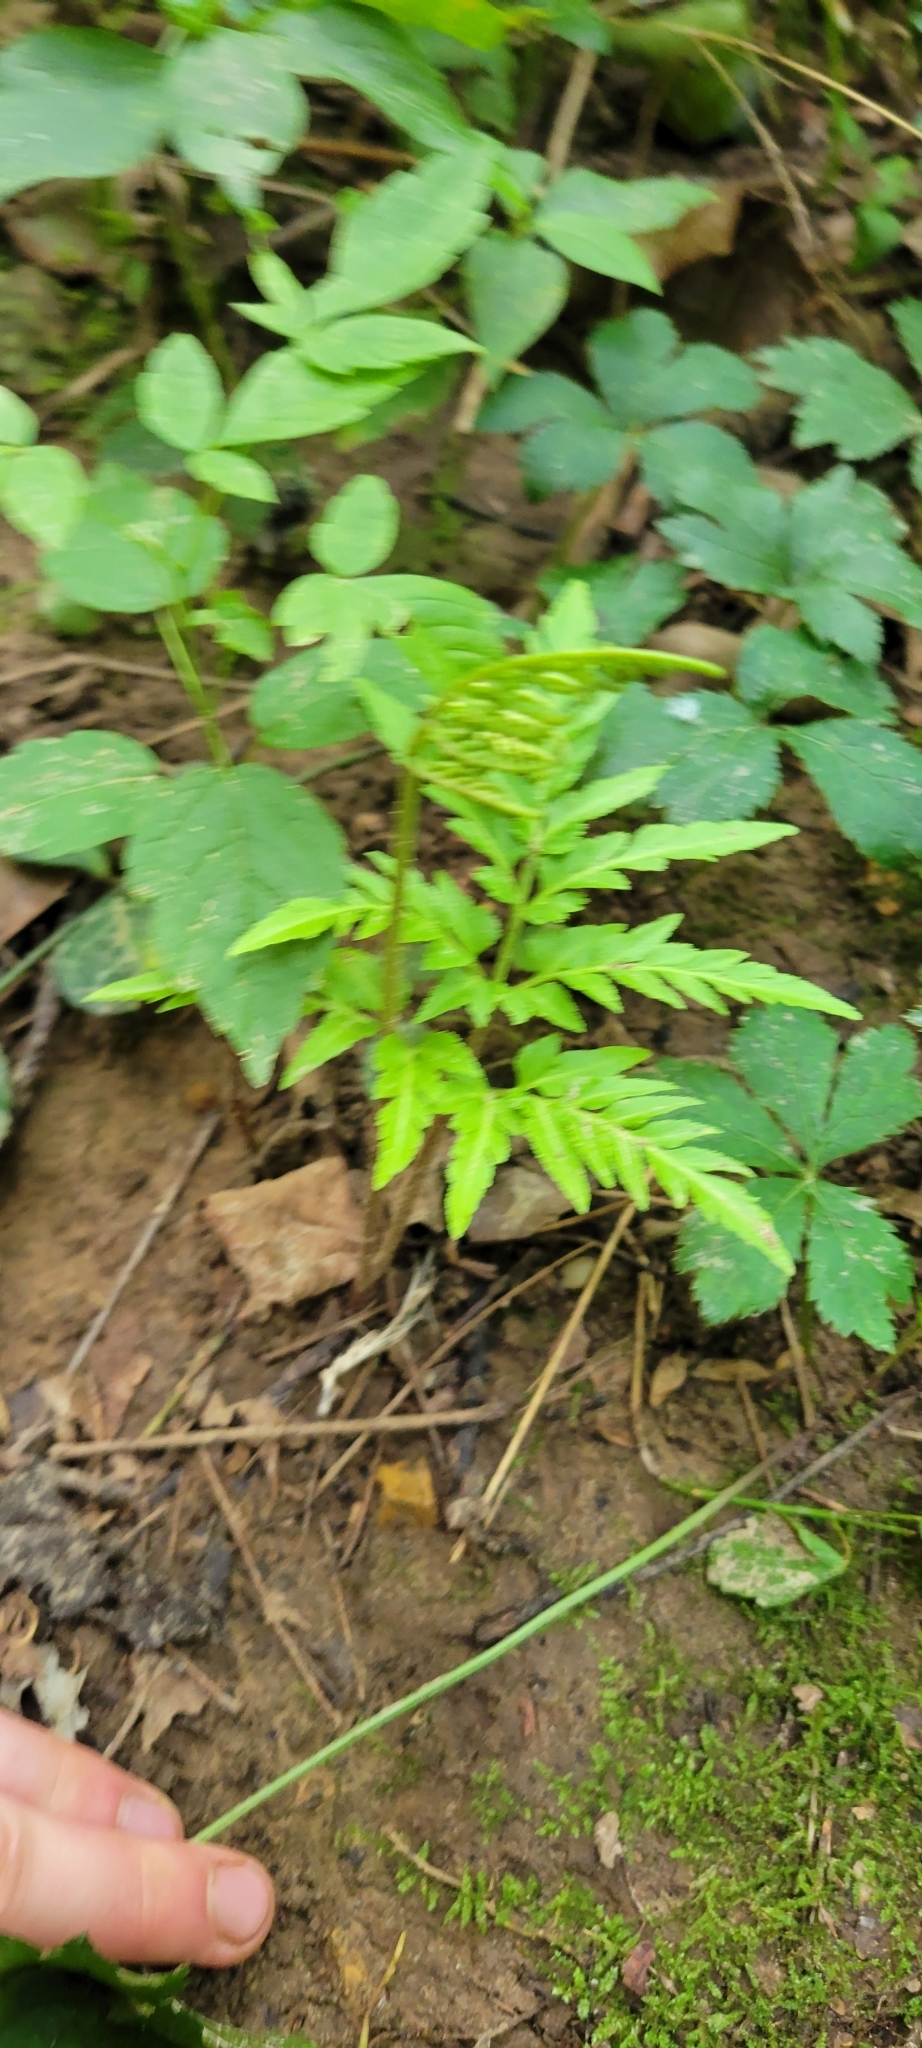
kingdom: Plantae
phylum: Tracheophyta
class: Polypodiopsida
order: Ophioglossales
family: Ophioglossaceae
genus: Sceptridium
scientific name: Sceptridium dissectum
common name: Cut-leaved grapefern
